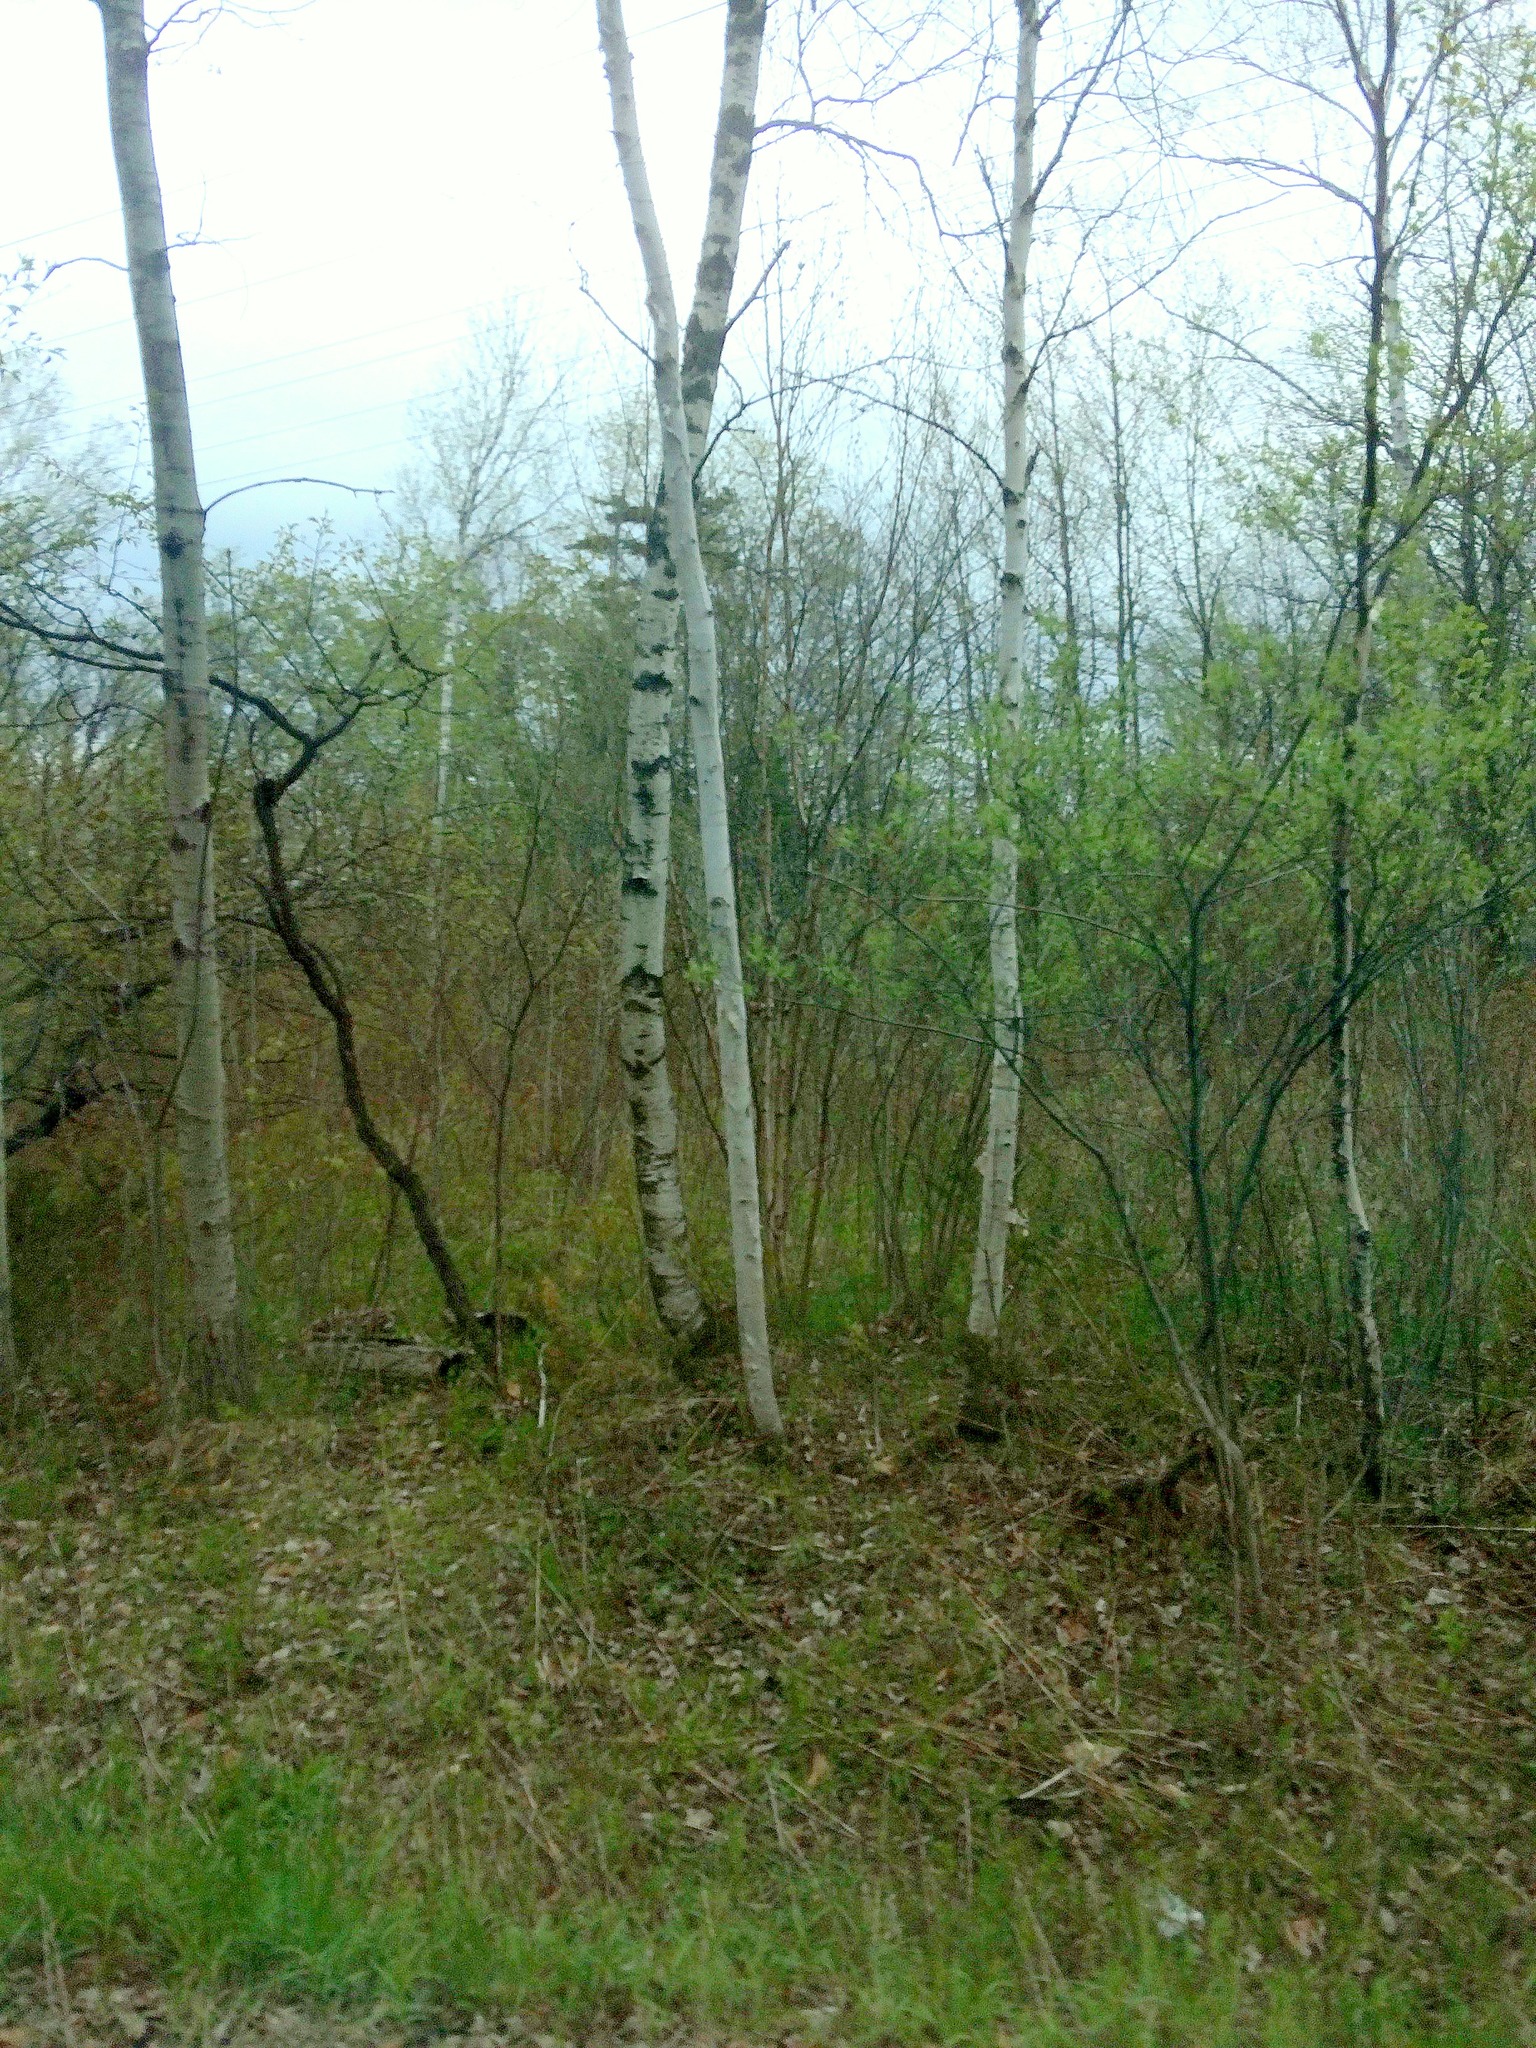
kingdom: Plantae
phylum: Tracheophyta
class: Magnoliopsida
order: Fagales
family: Betulaceae
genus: Betula
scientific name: Betula papyrifera
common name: Paper birch
